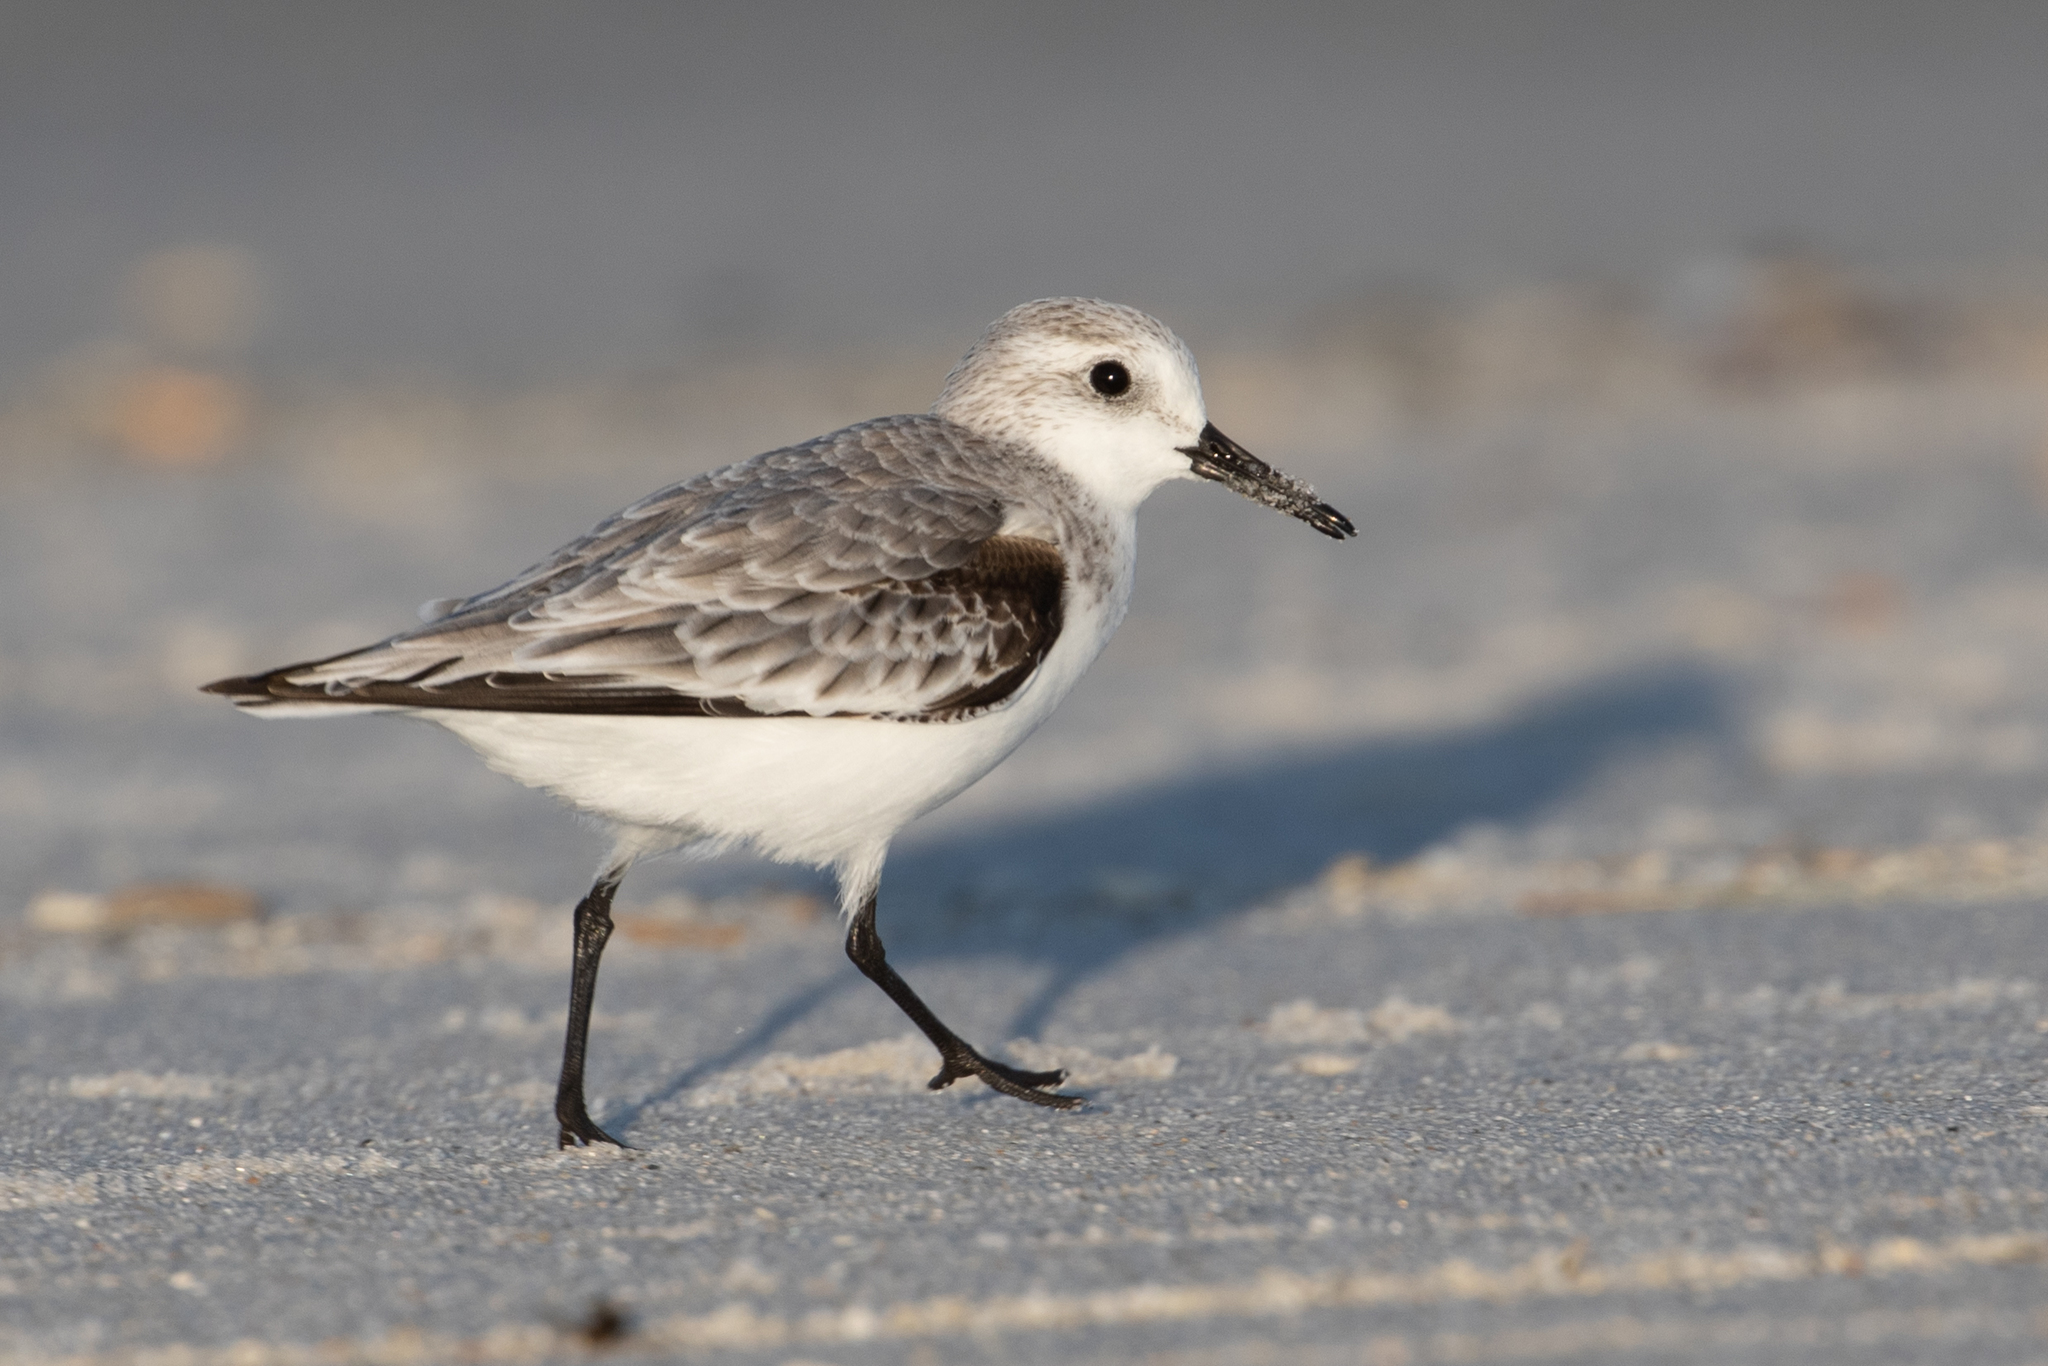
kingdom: Animalia
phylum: Chordata
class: Aves
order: Charadriiformes
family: Scolopacidae
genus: Calidris
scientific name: Calidris alba
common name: Sanderling
